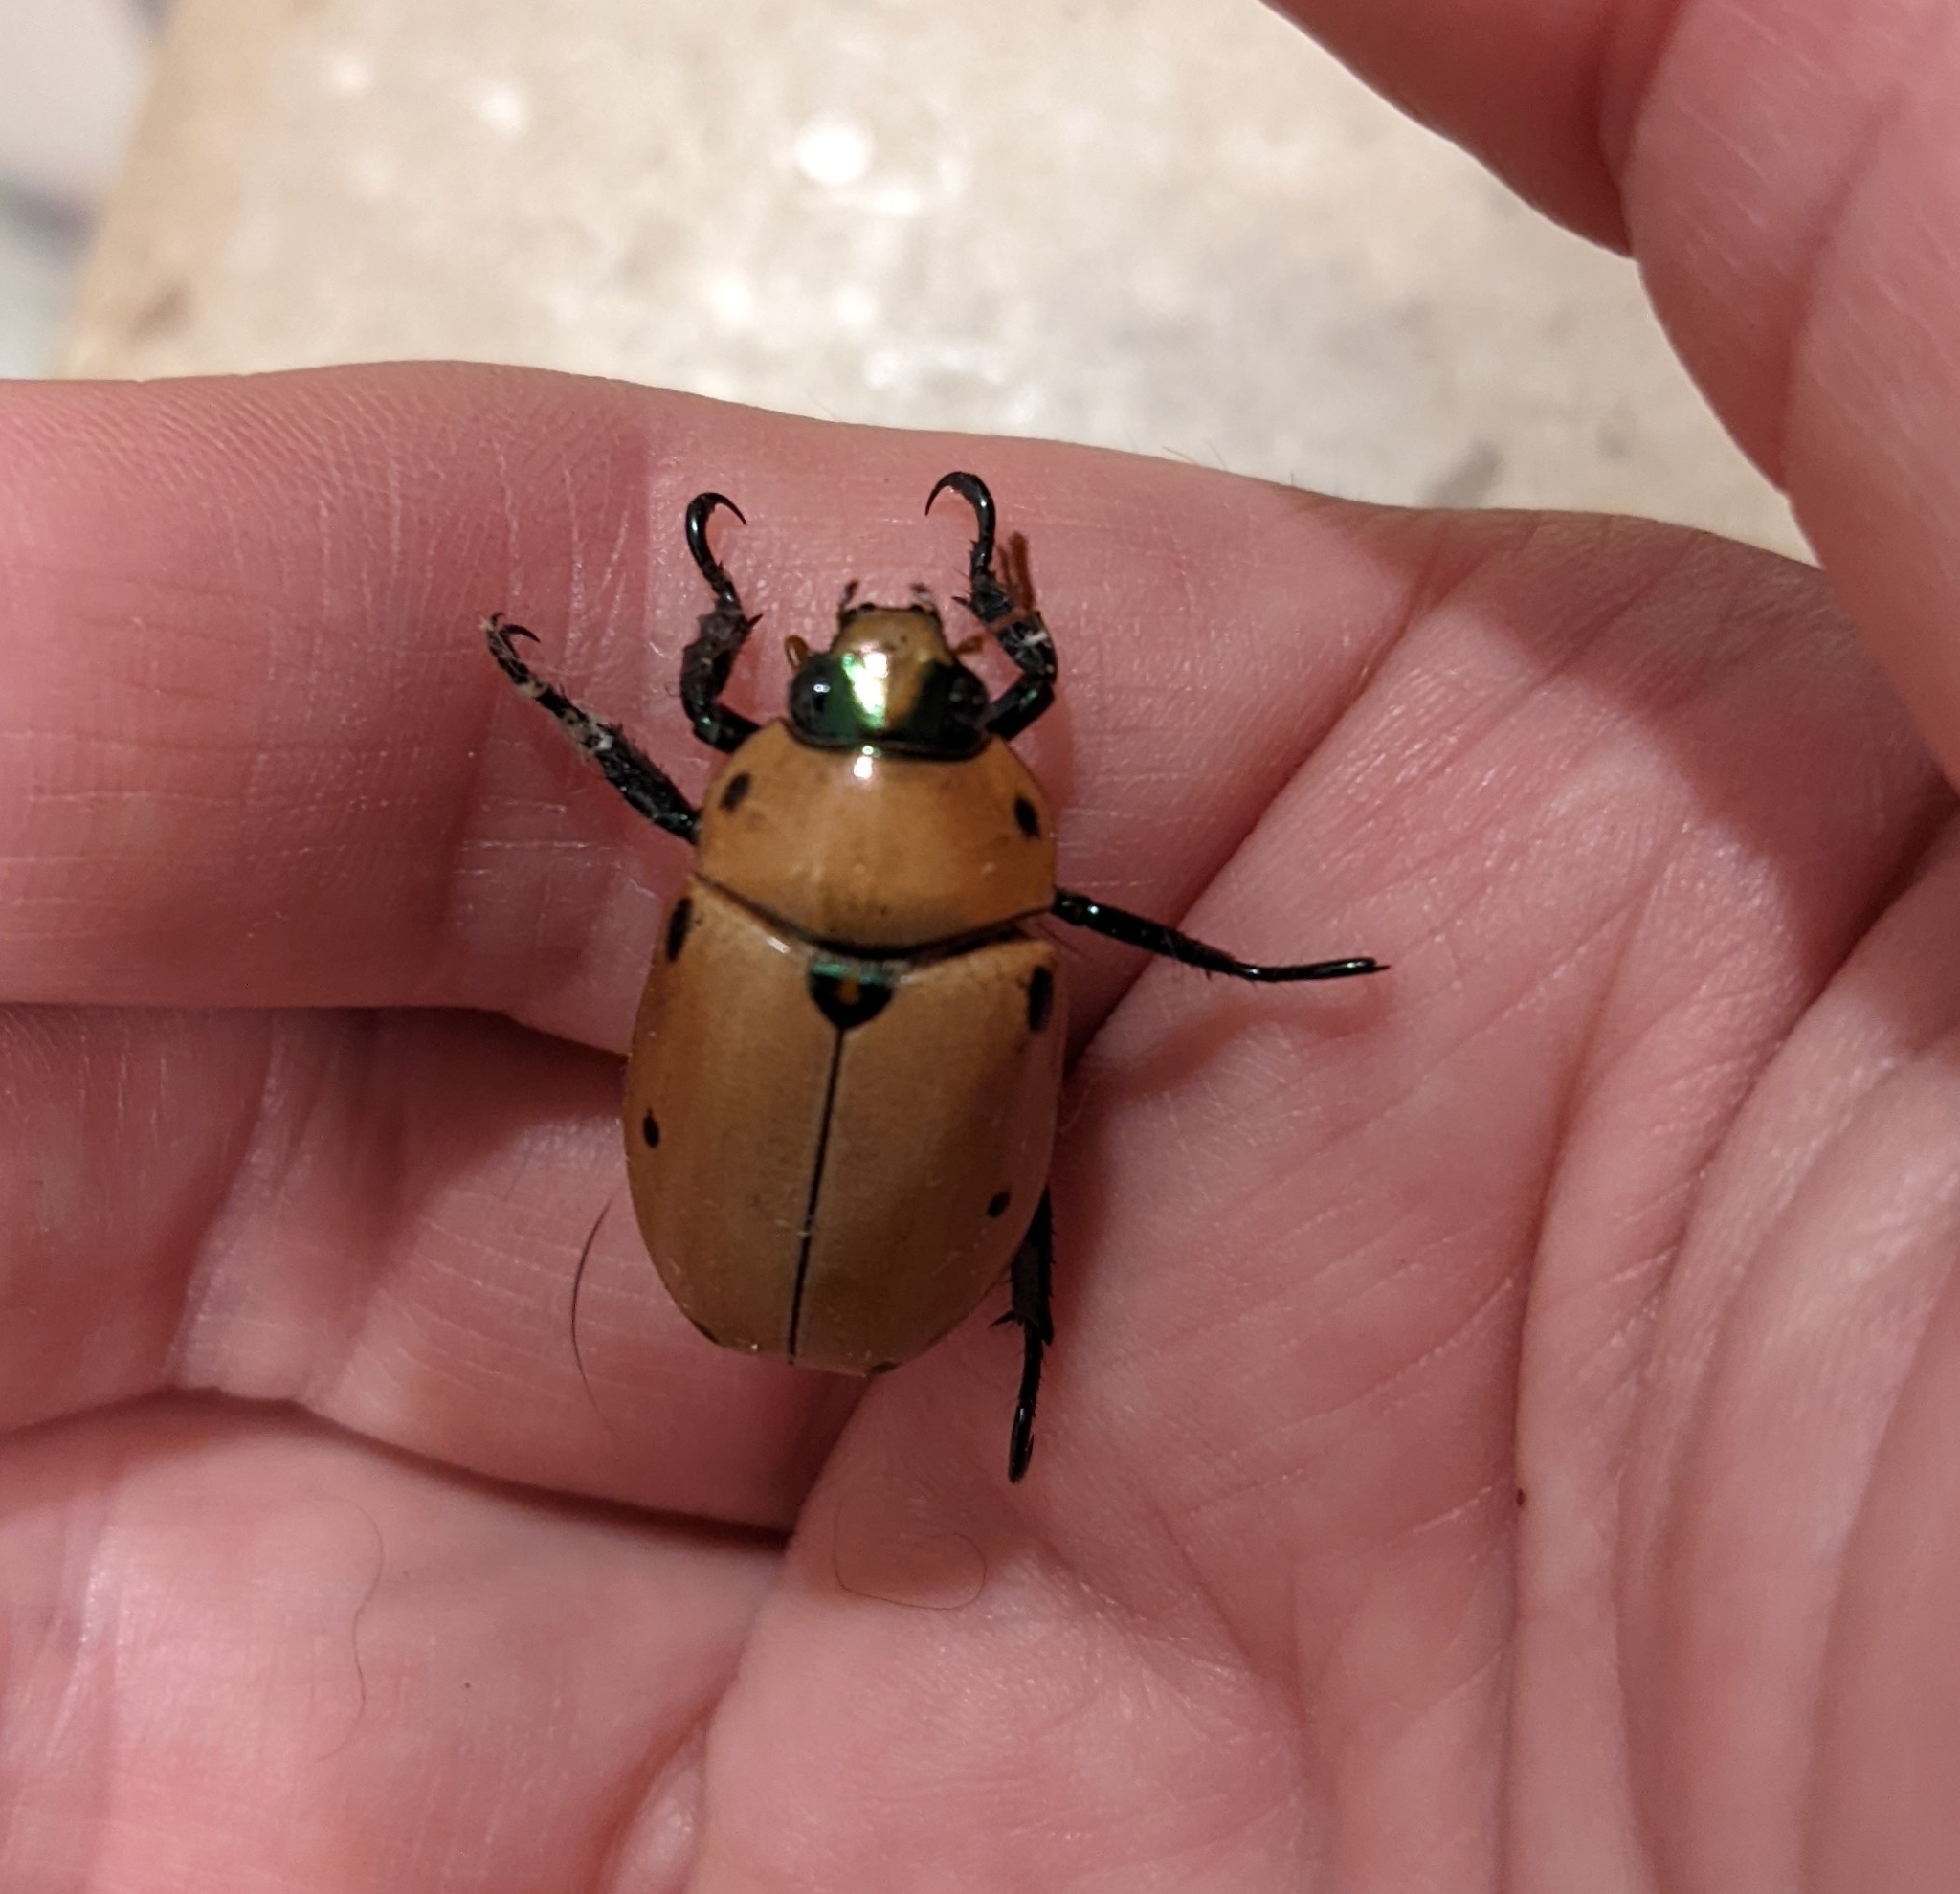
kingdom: Animalia
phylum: Arthropoda
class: Insecta
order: Coleoptera
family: Scarabaeidae
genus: Pelidnota
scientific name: Pelidnota punctata
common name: Grapevine beetle
